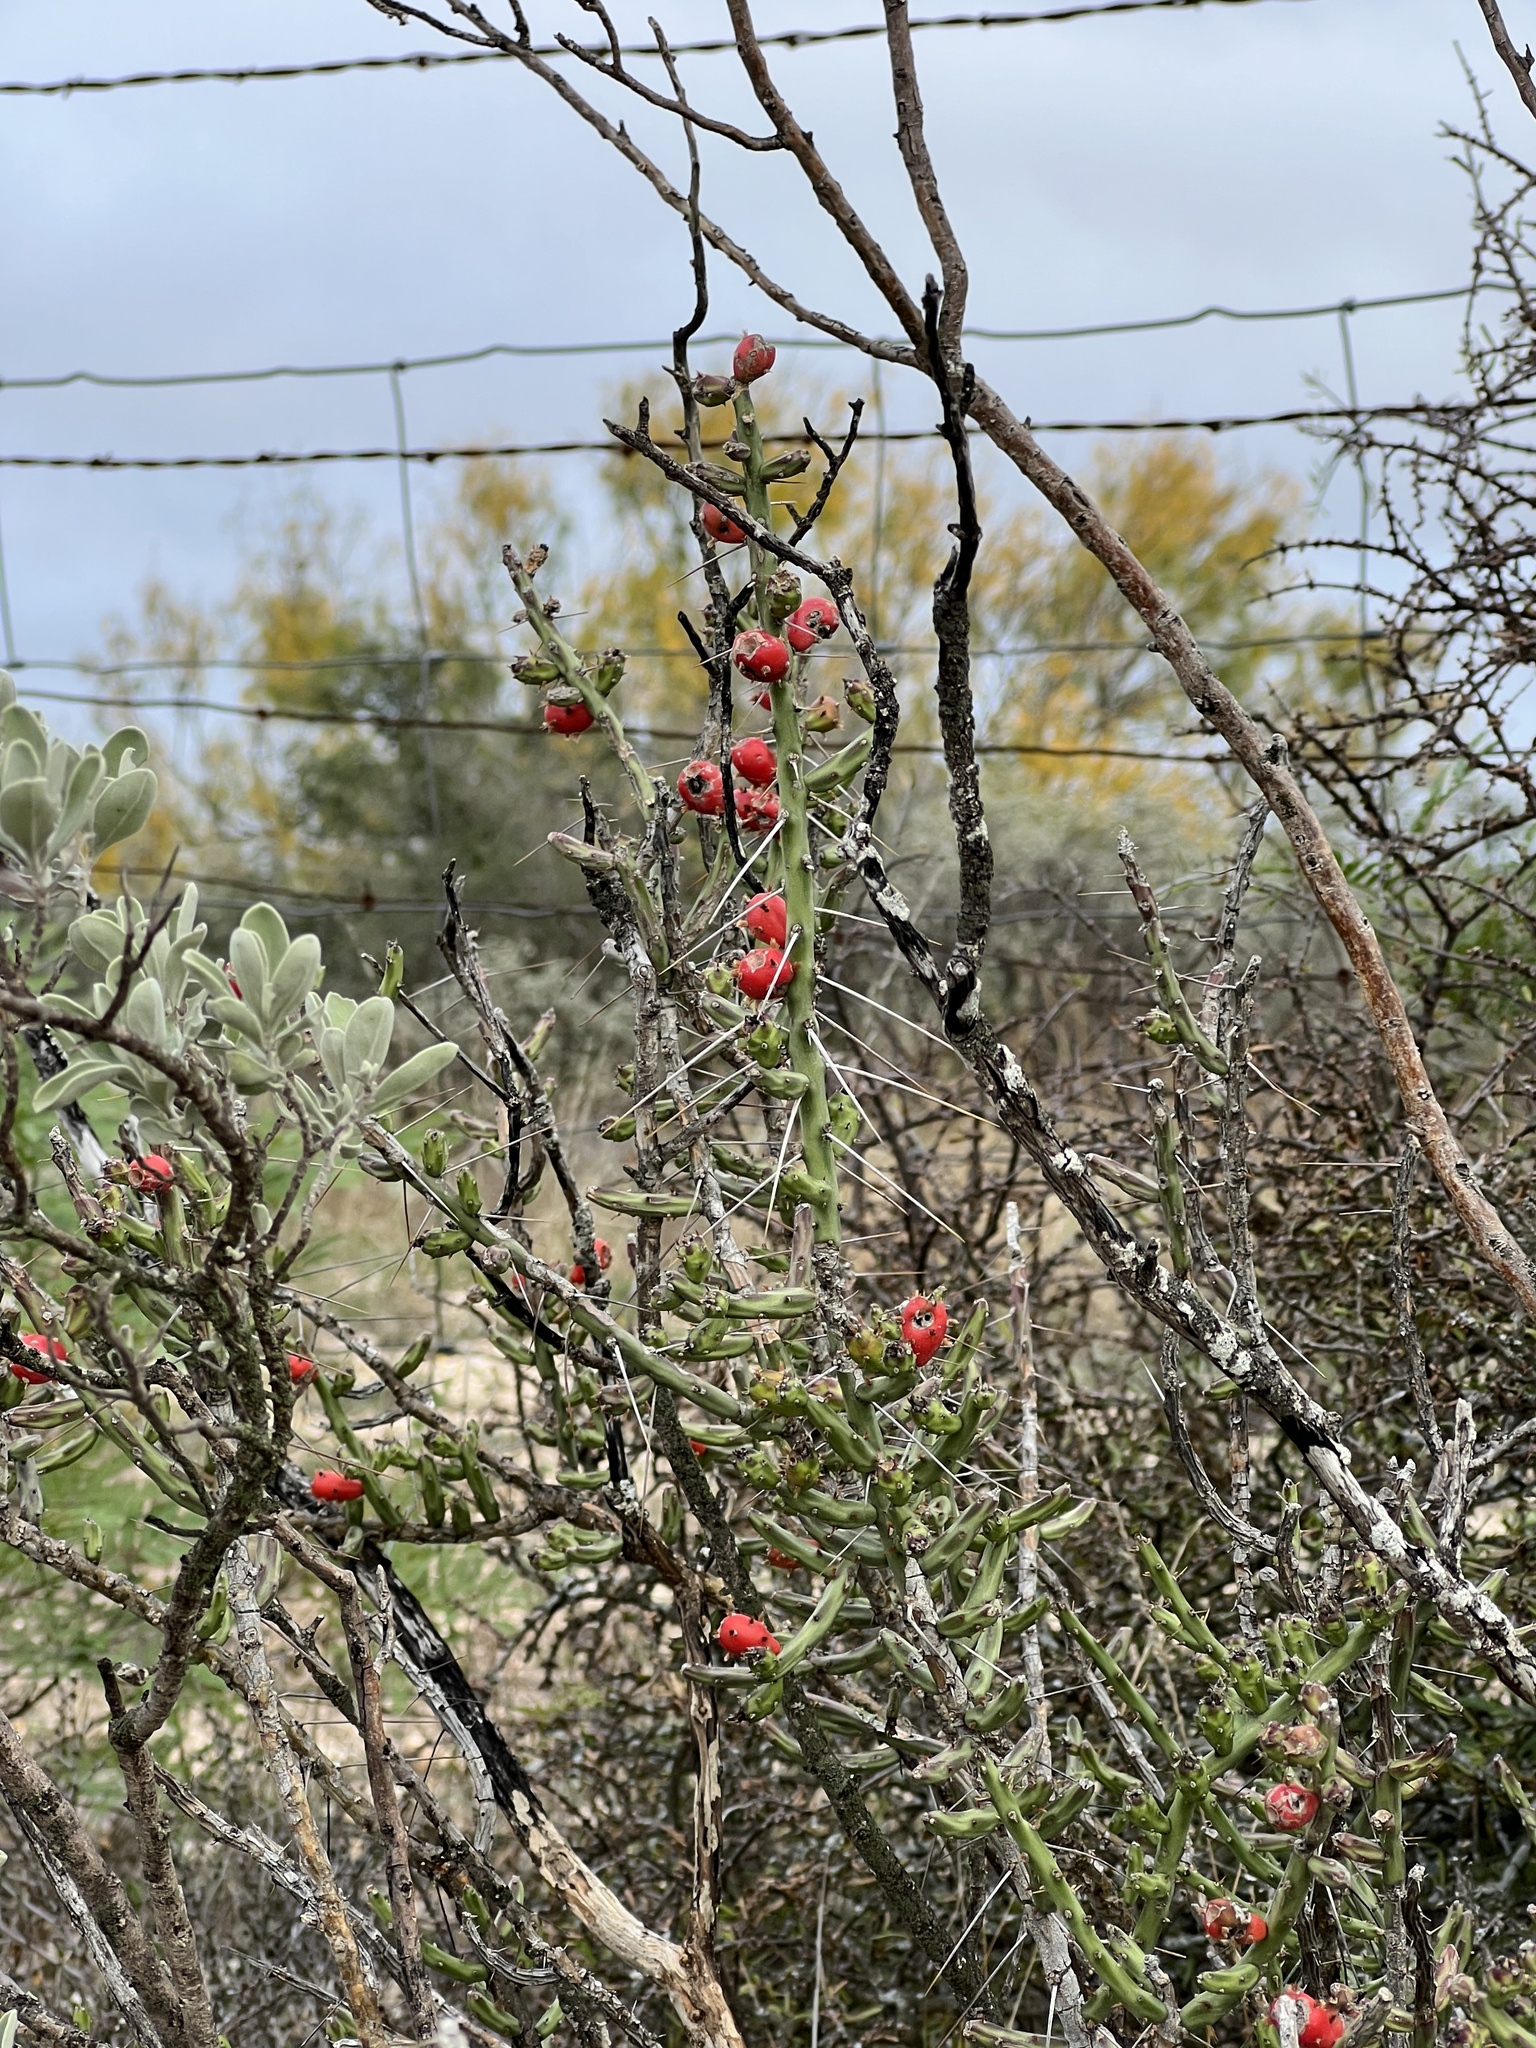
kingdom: Plantae
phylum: Tracheophyta
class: Magnoliopsida
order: Caryophyllales
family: Cactaceae
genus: Cylindropuntia
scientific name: Cylindropuntia leptocaulis
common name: Christmas cactus
